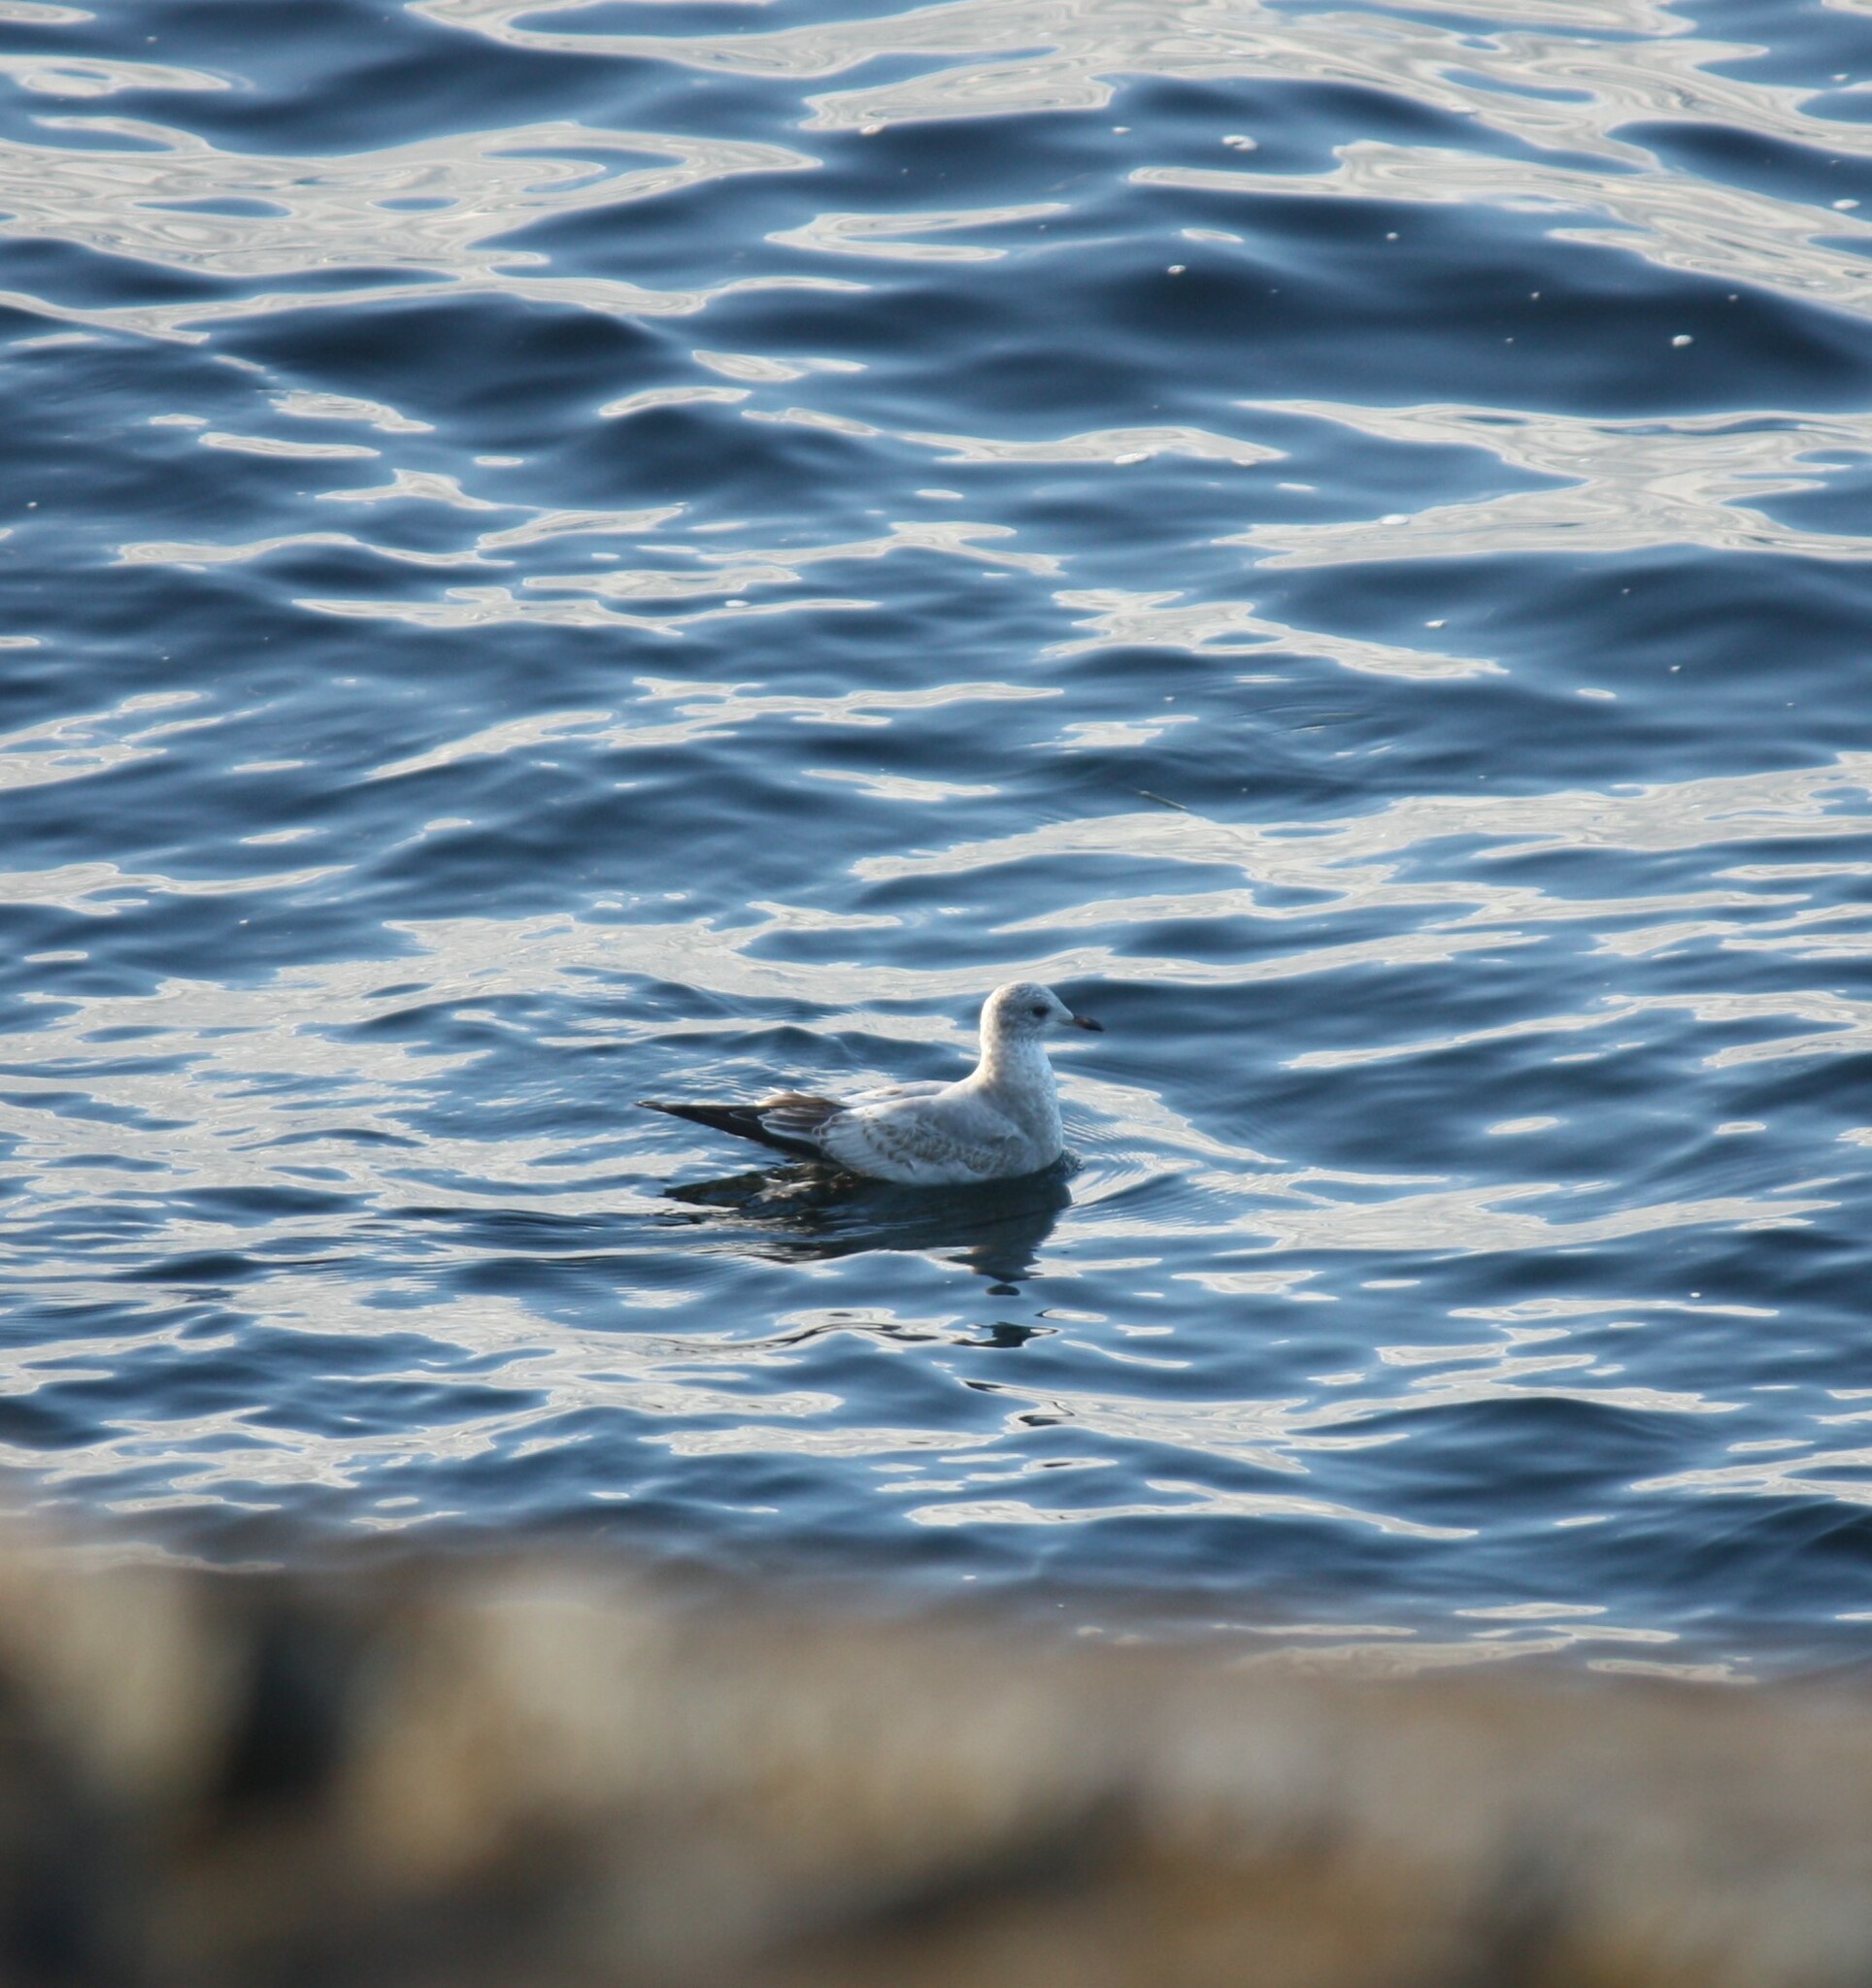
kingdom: Animalia
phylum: Chordata
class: Aves
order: Charadriiformes
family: Laridae
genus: Larus
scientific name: Larus brachyrhynchus
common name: Short-billed gull
